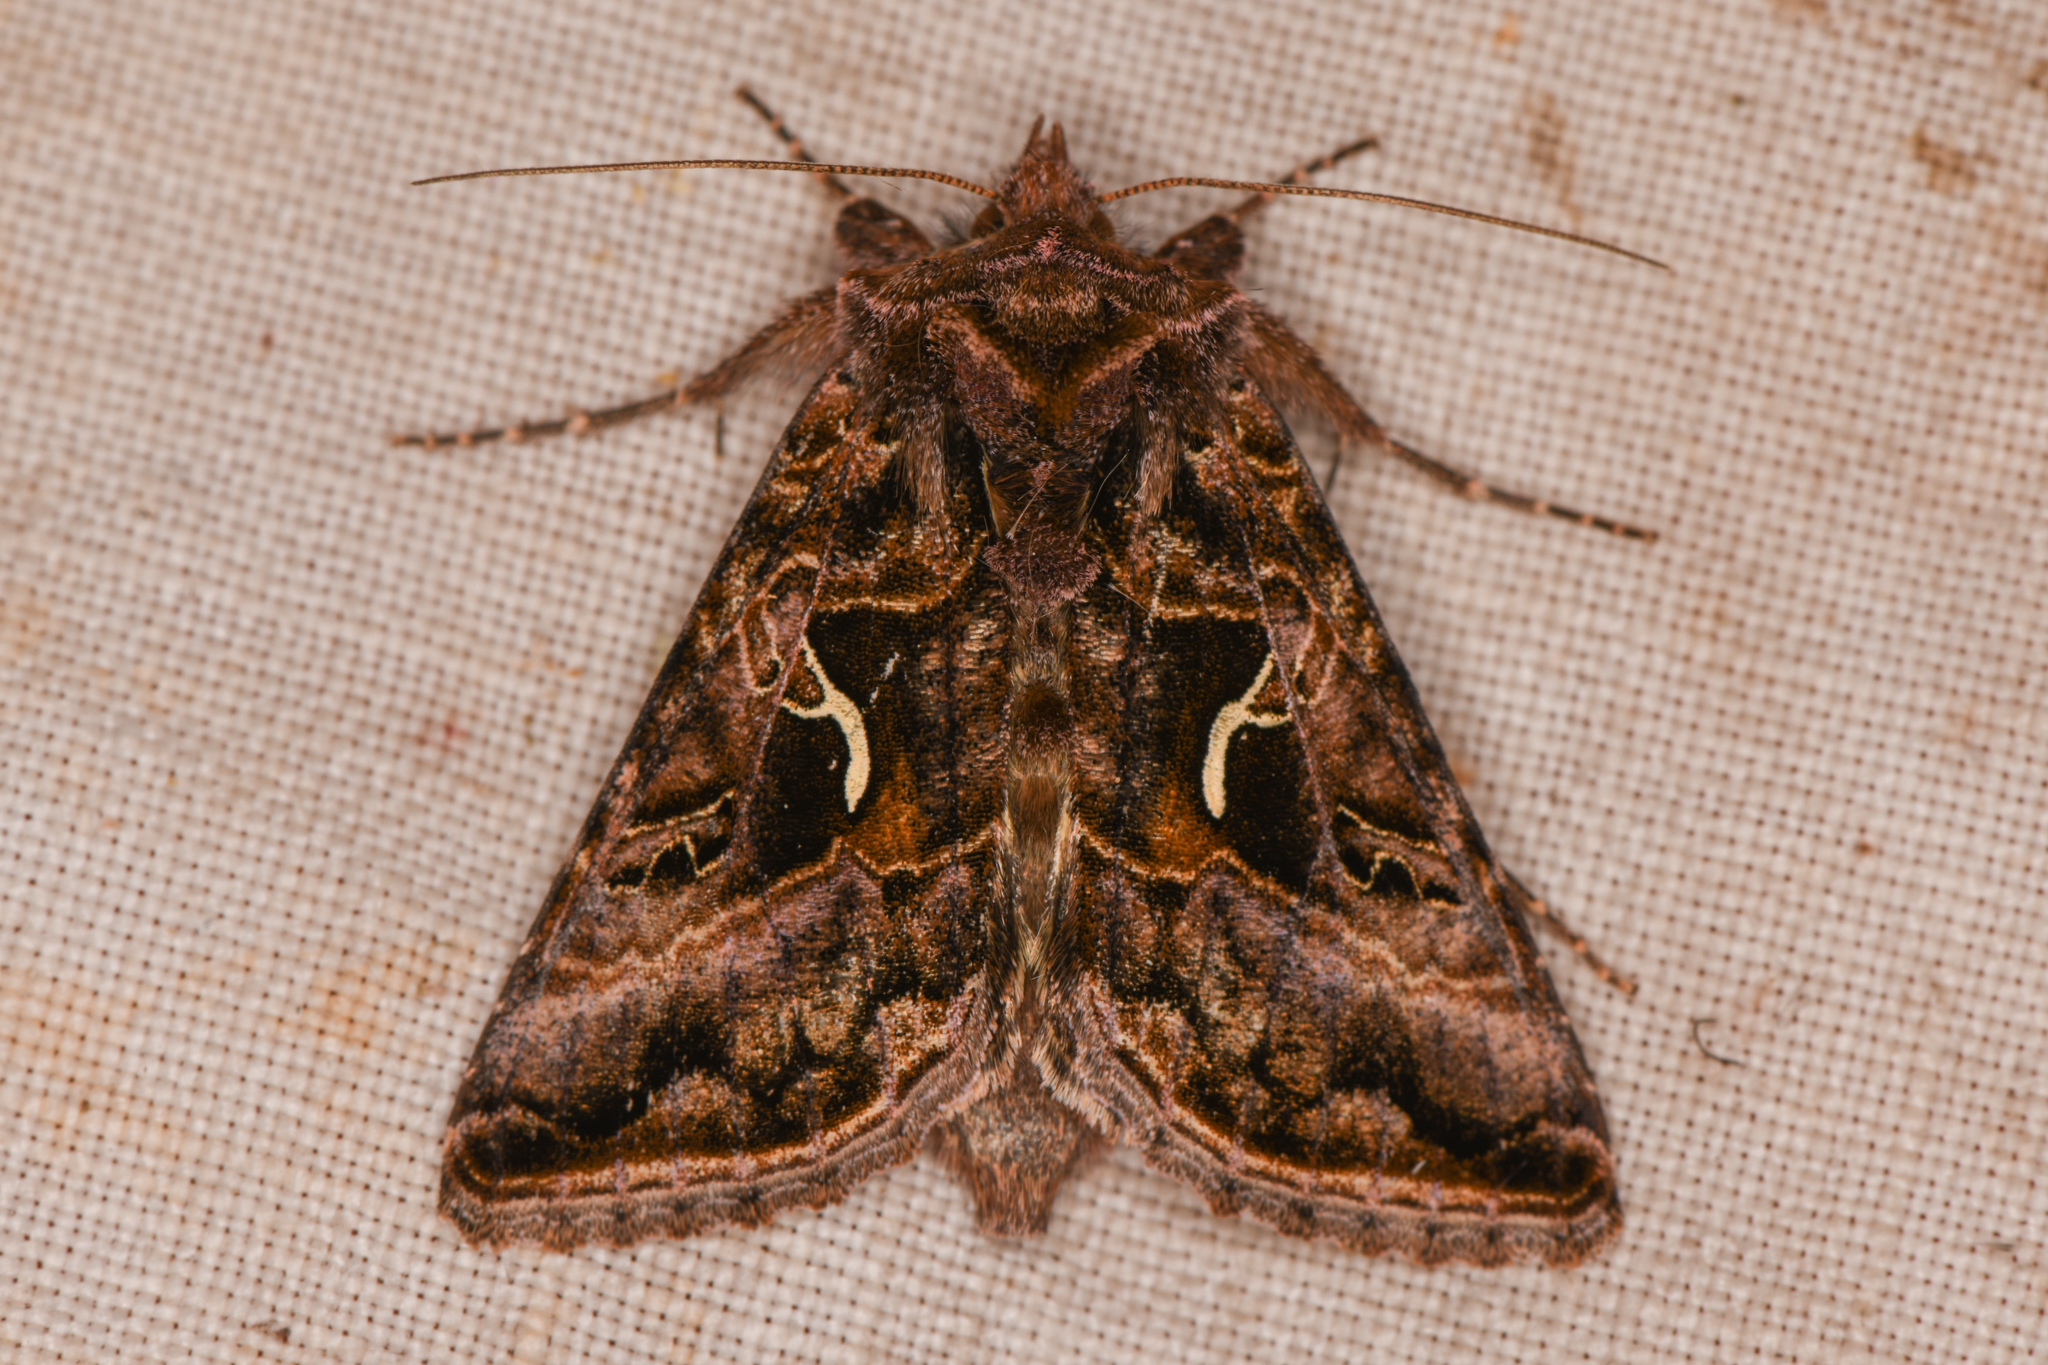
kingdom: Animalia
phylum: Arthropoda
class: Insecta
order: Lepidoptera
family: Noctuidae
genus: Autographa
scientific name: Autographa sansoni
